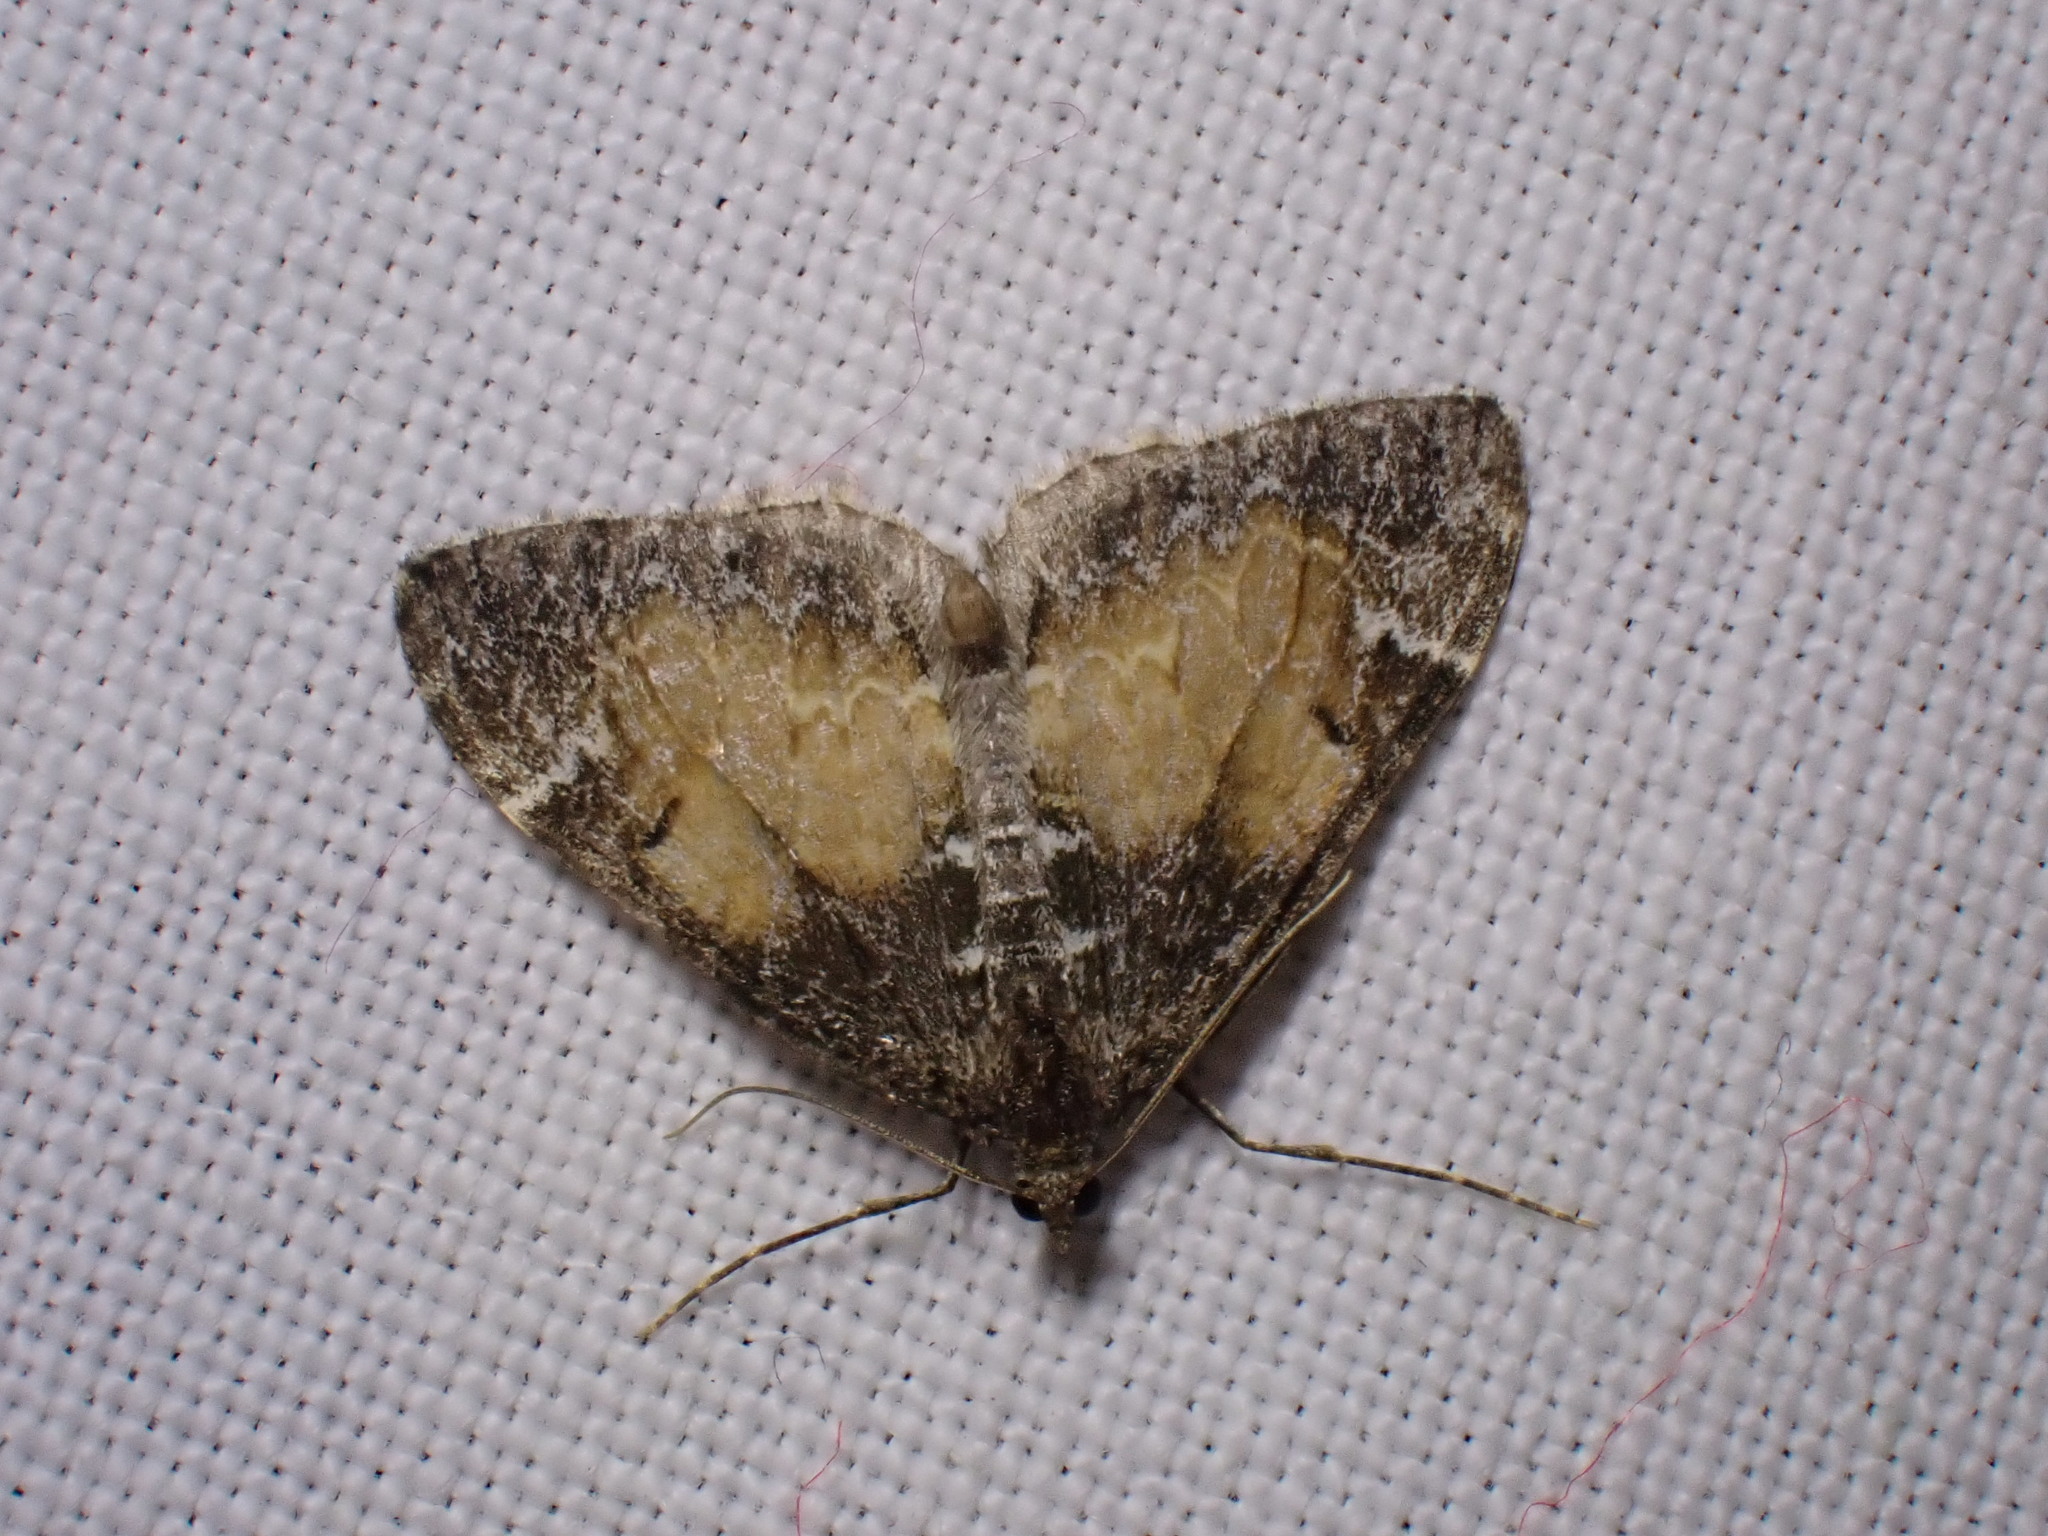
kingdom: Animalia
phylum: Arthropoda
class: Insecta
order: Lepidoptera
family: Geometridae
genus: Dysstroma
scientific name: Dysstroma truncata
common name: Common marbled carpet
